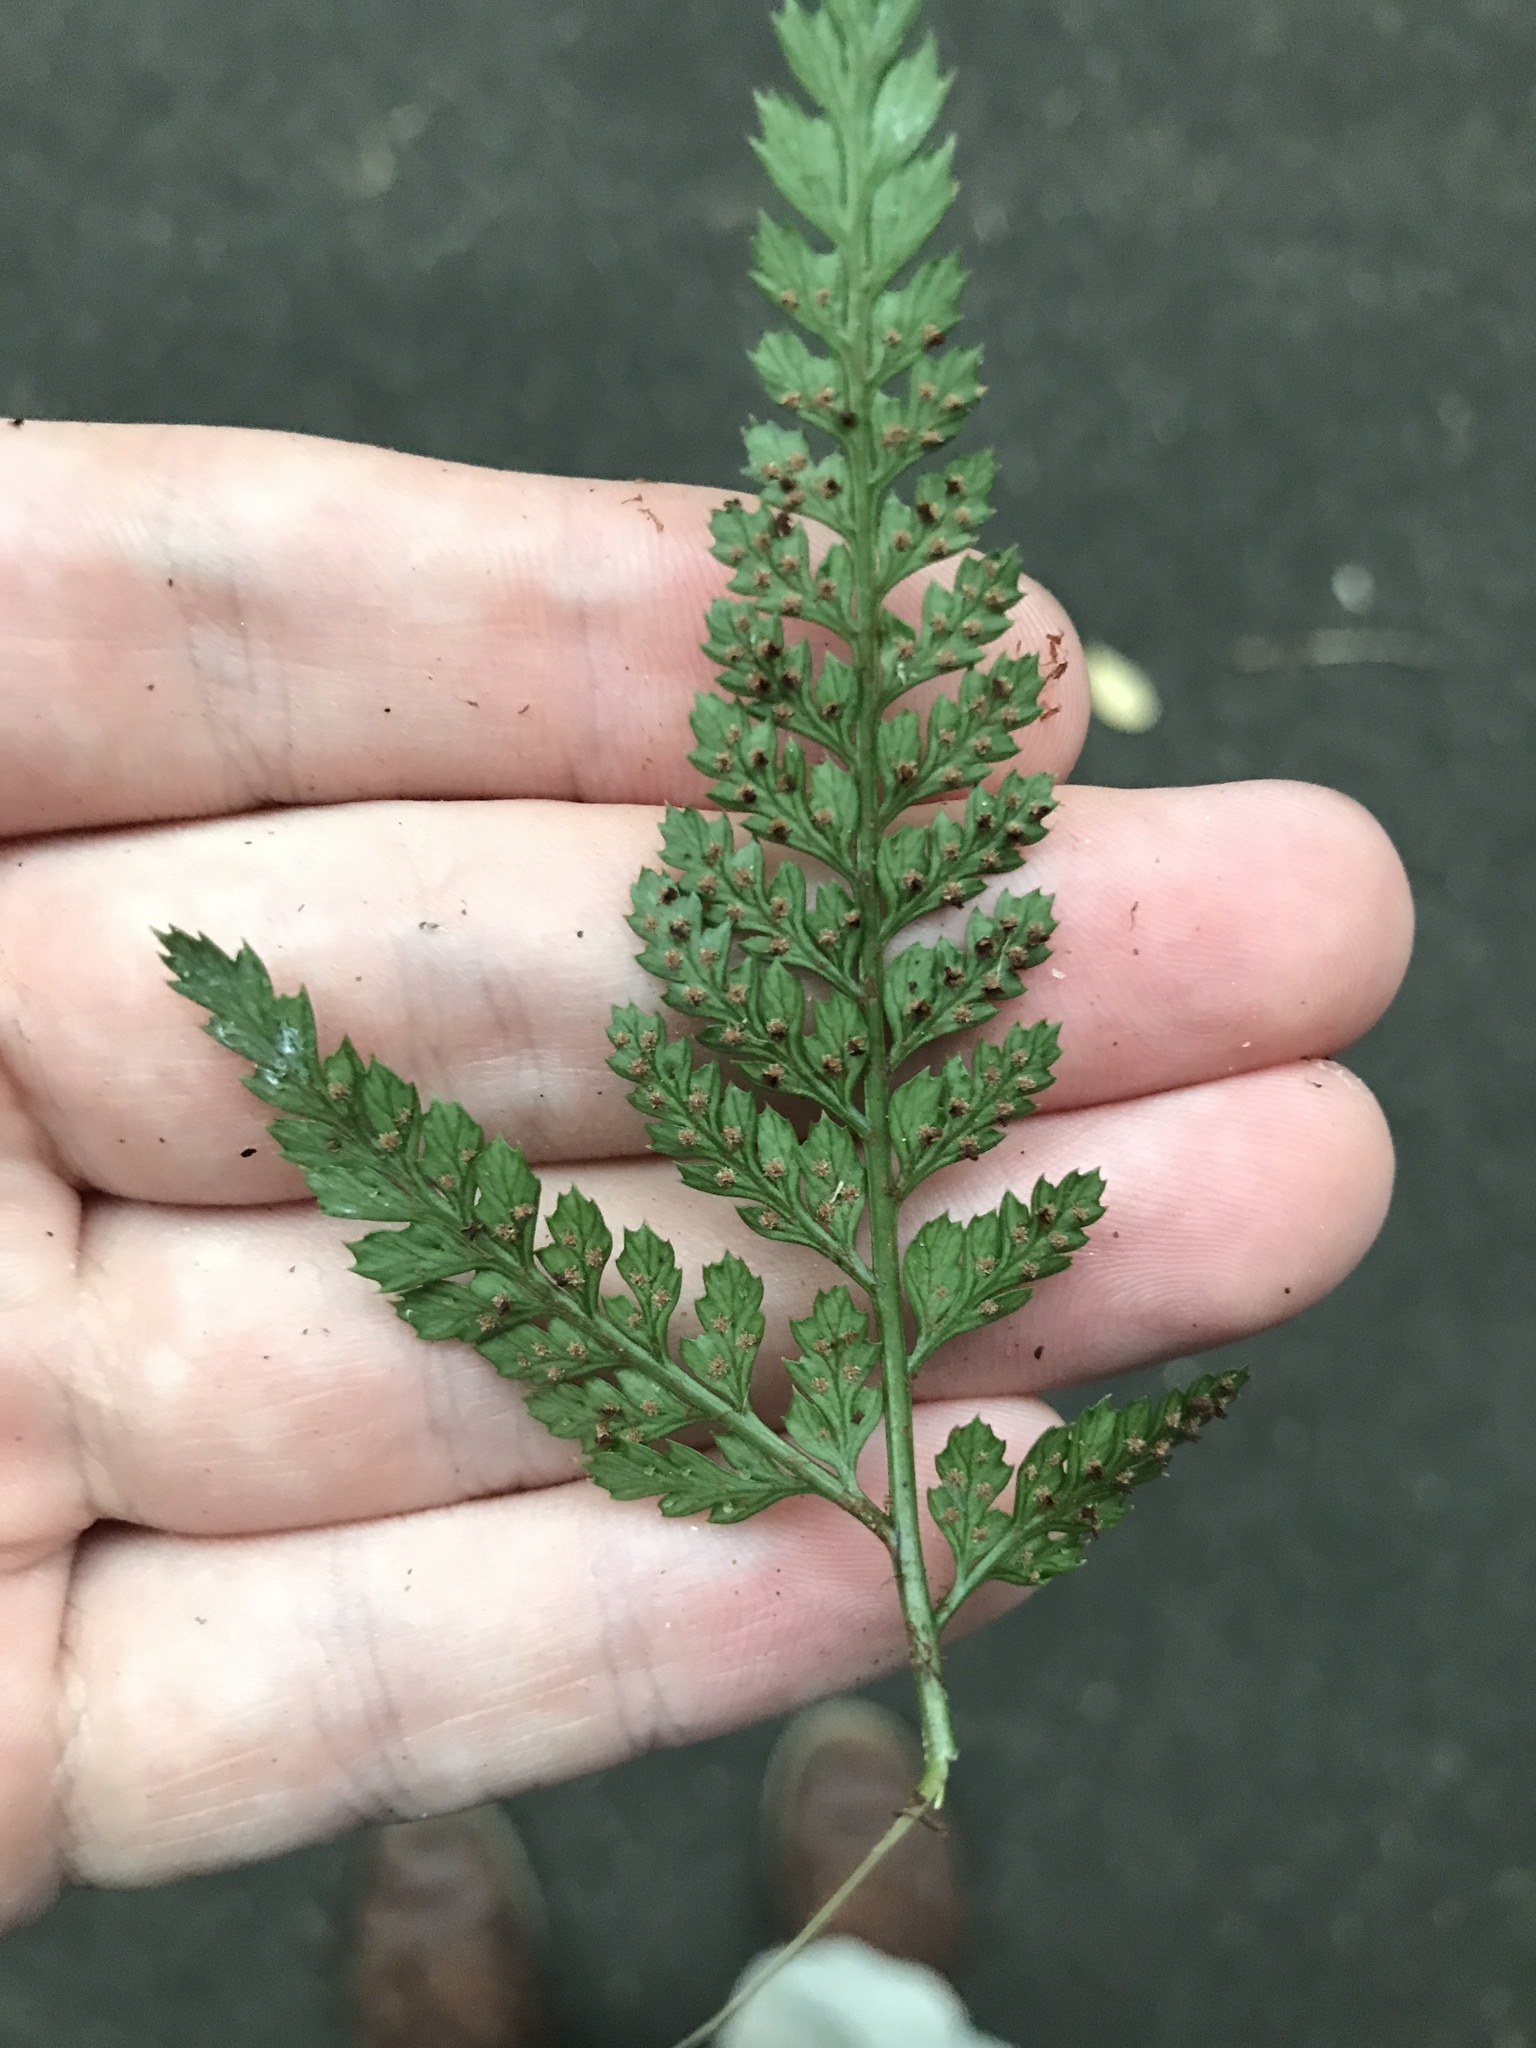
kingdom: Plantae
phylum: Tracheophyta
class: Polypodiopsida
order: Polypodiales
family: Dryopteridaceae
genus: Arachniodes
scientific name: Arachniodes cornu-cervi
